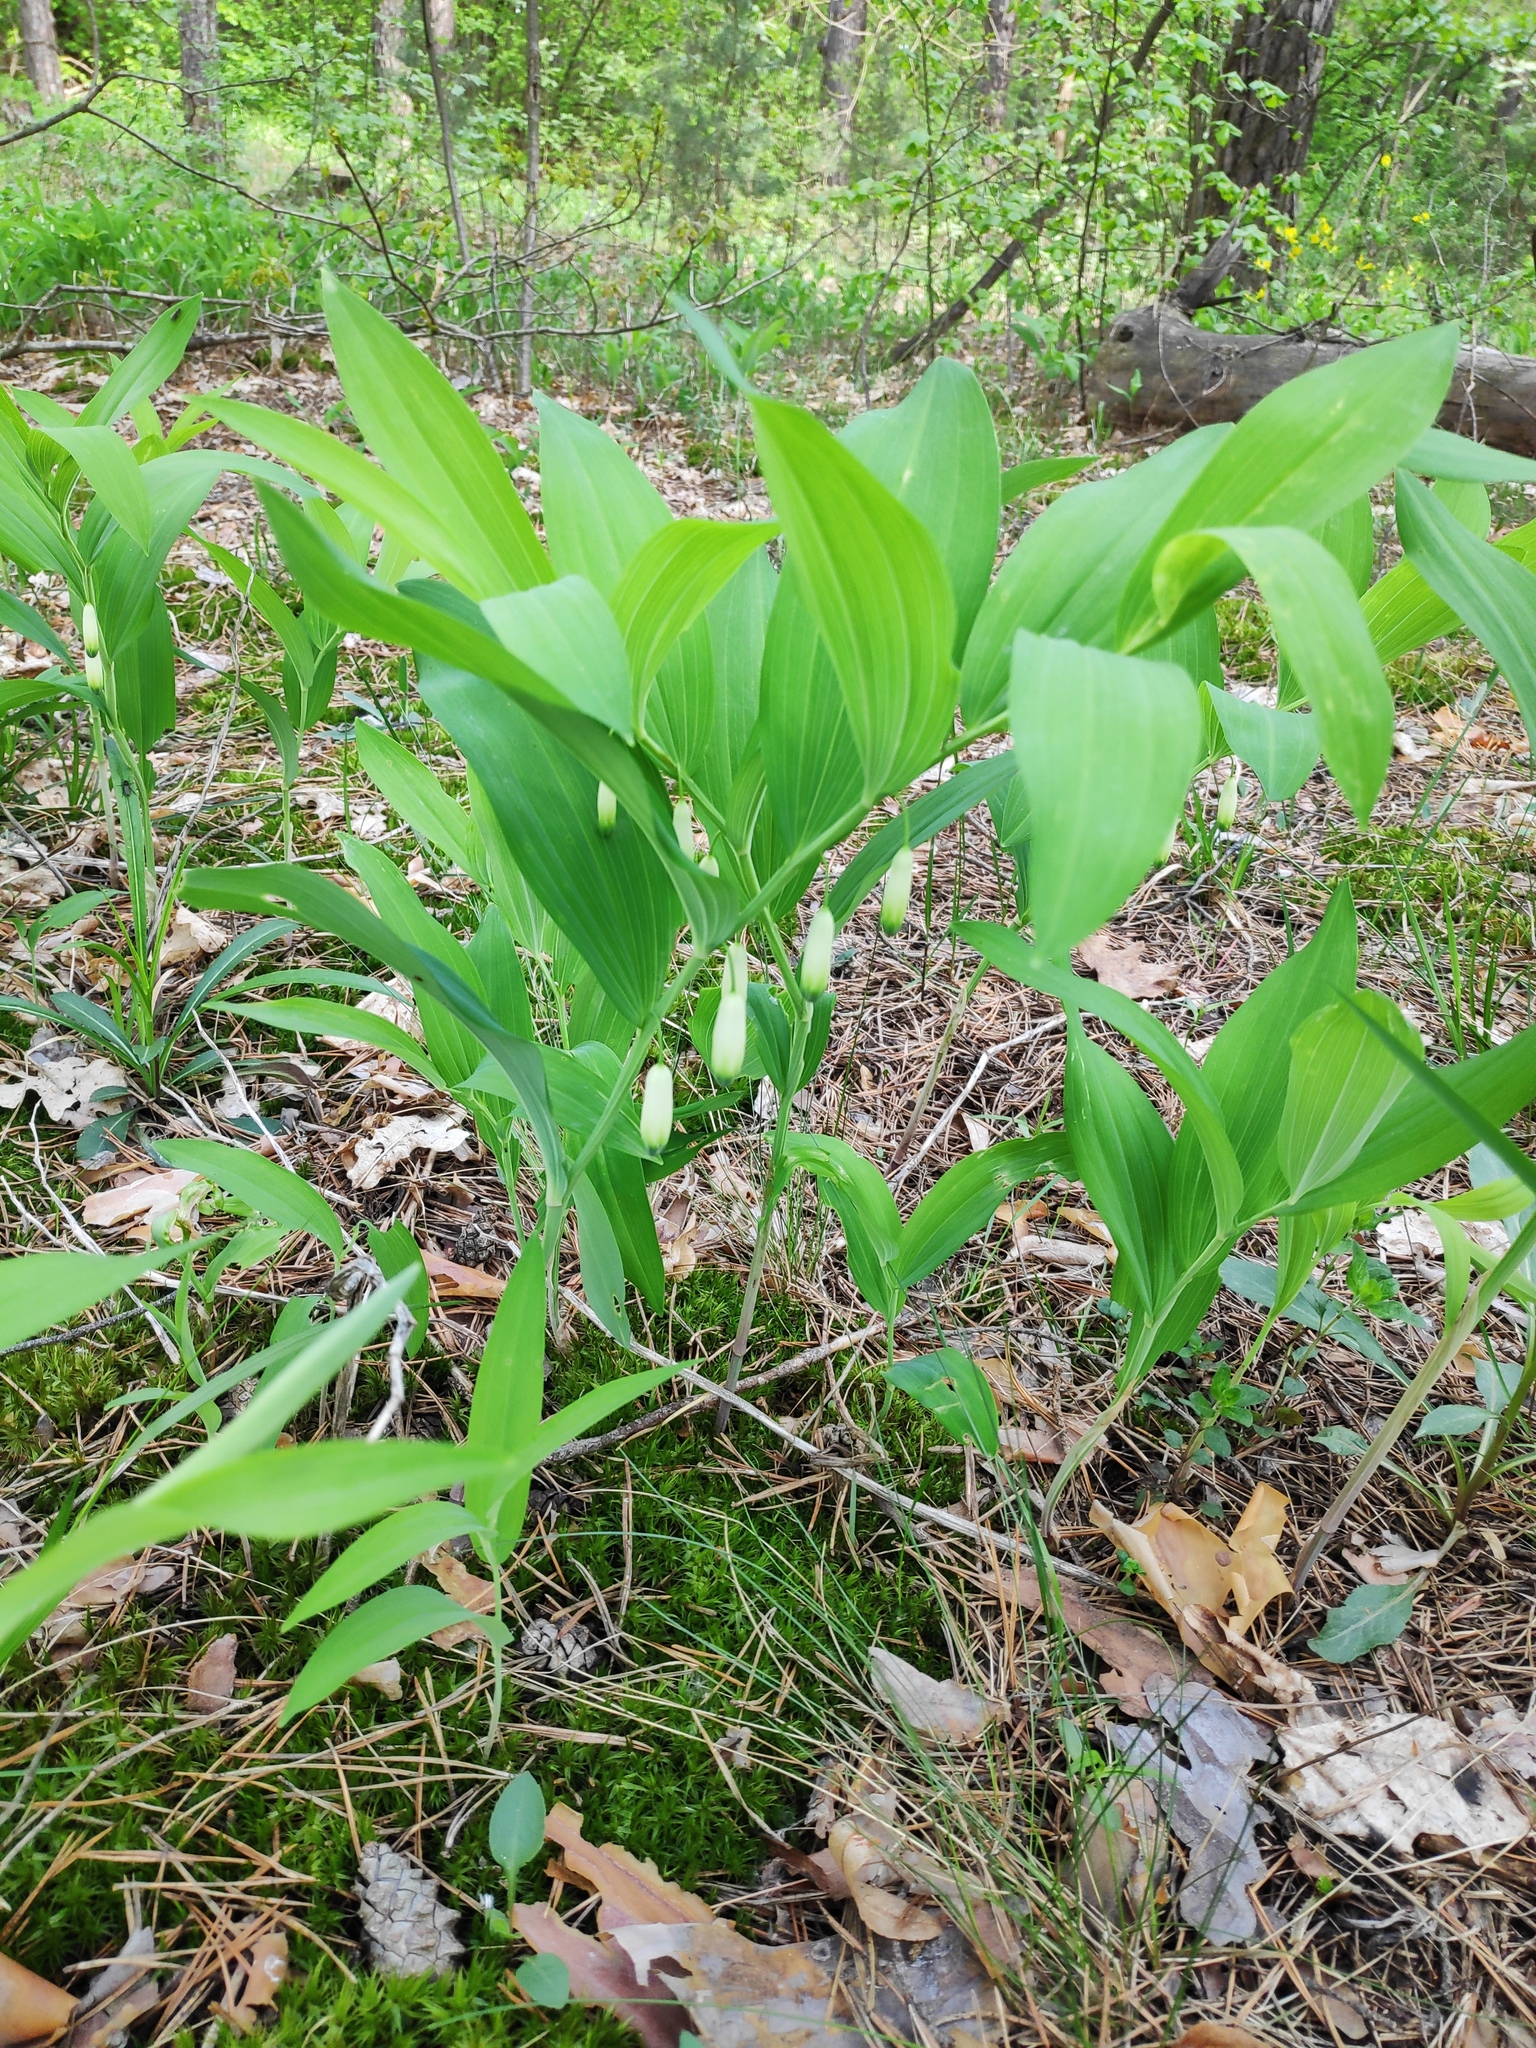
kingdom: Plantae
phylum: Tracheophyta
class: Liliopsida
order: Asparagales
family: Asparagaceae
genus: Polygonatum
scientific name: Polygonatum odoratum
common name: Angular solomon's-seal
